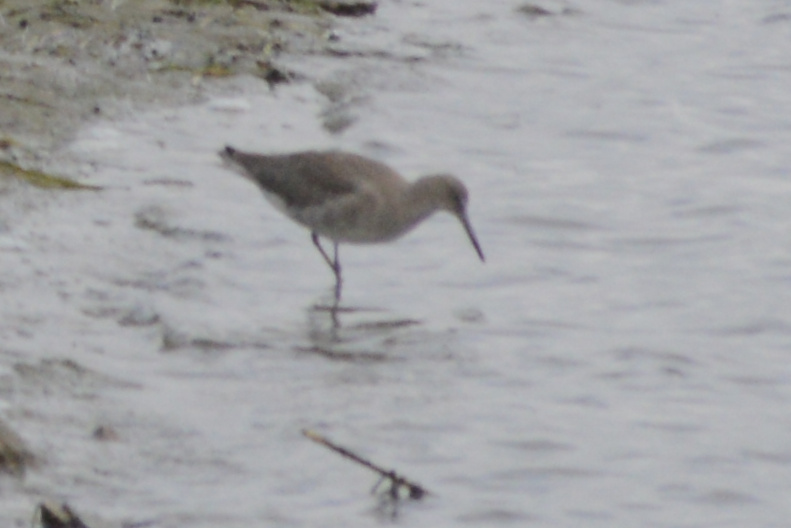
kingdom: Animalia
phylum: Chordata
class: Aves
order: Charadriiformes
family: Scolopacidae
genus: Tringa
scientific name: Tringa semipalmata
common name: Willet
